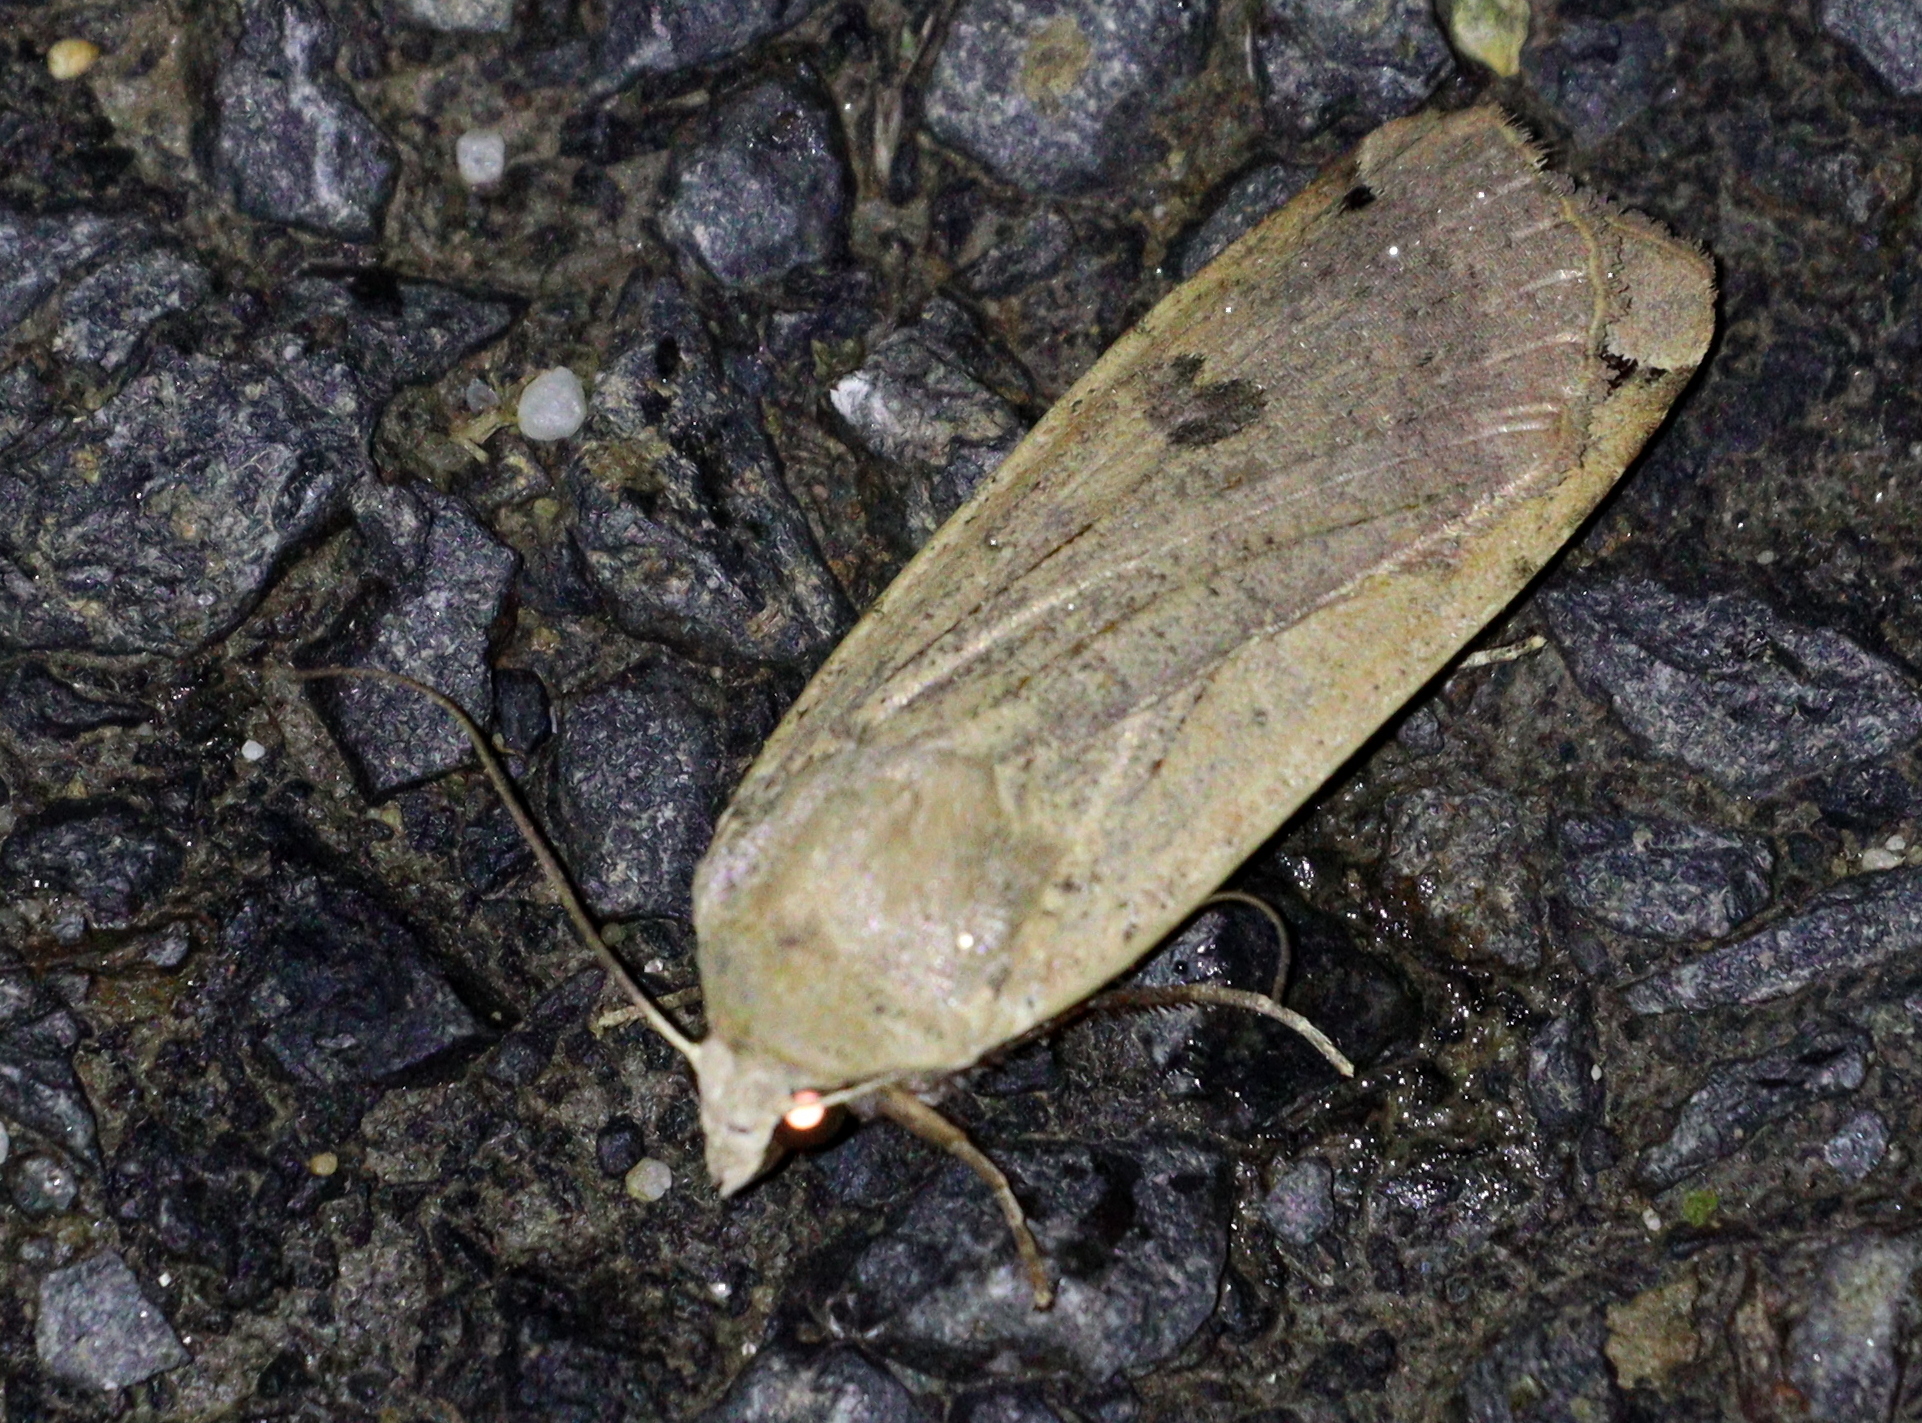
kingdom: Animalia
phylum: Arthropoda
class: Insecta
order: Lepidoptera
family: Noctuidae
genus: Noctua
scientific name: Noctua pronuba
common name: Large yellow underwing
